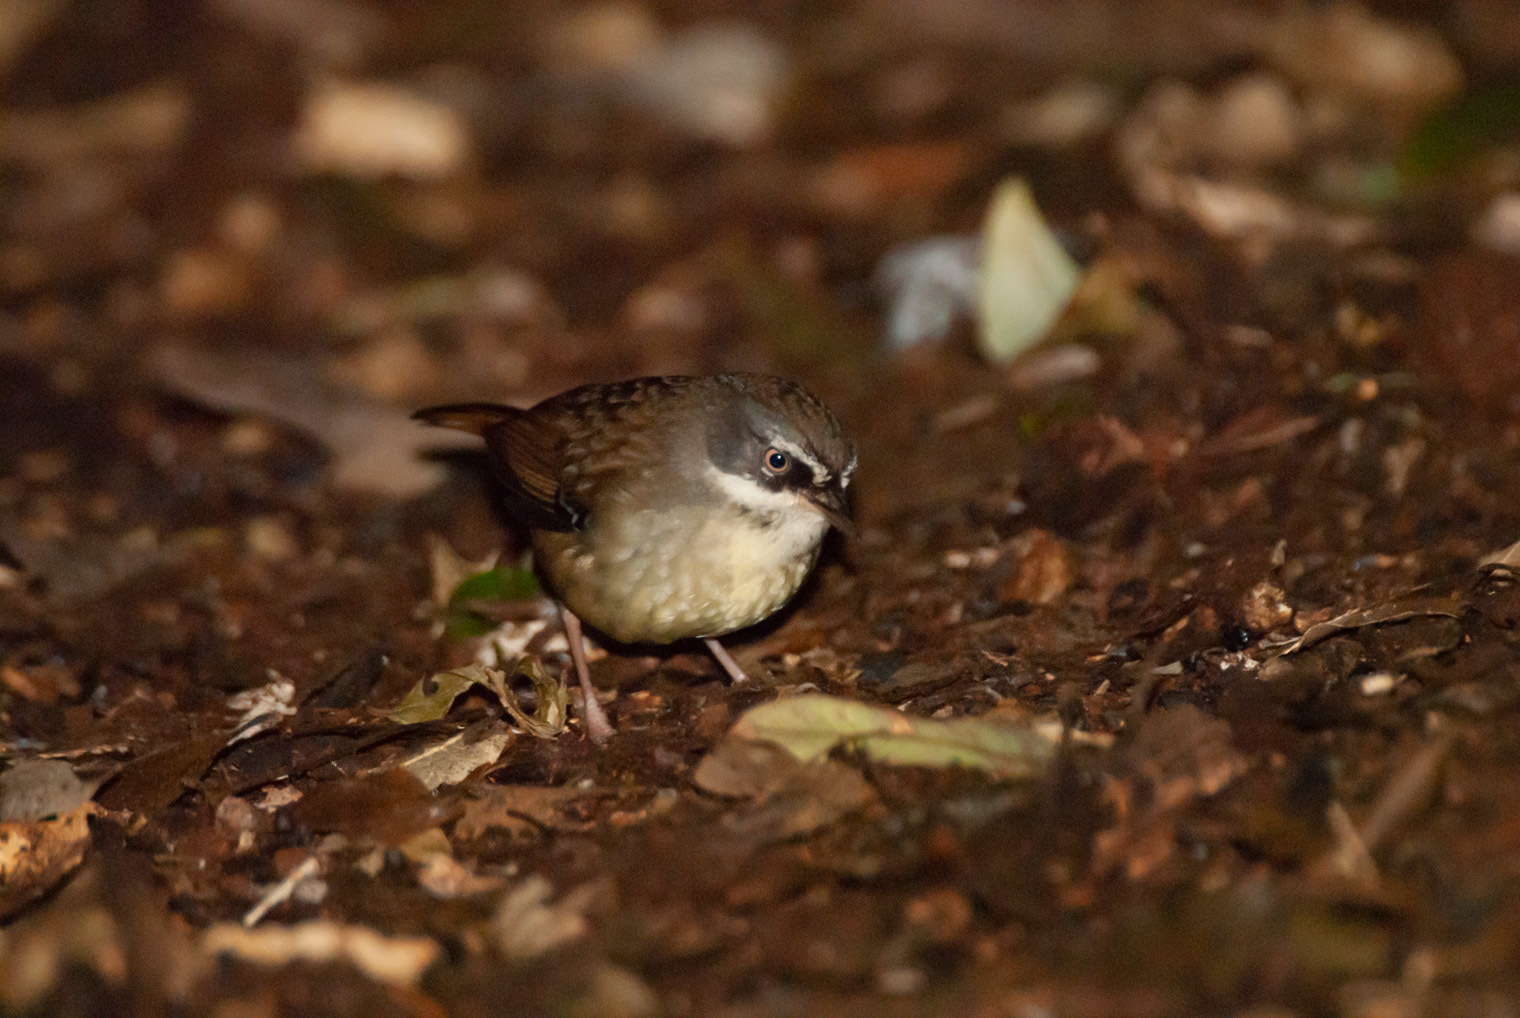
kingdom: Animalia
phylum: Chordata
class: Aves
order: Passeriformes
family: Acanthizidae
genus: Sericornis
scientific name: Sericornis frontalis
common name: White-browed scrubwren
